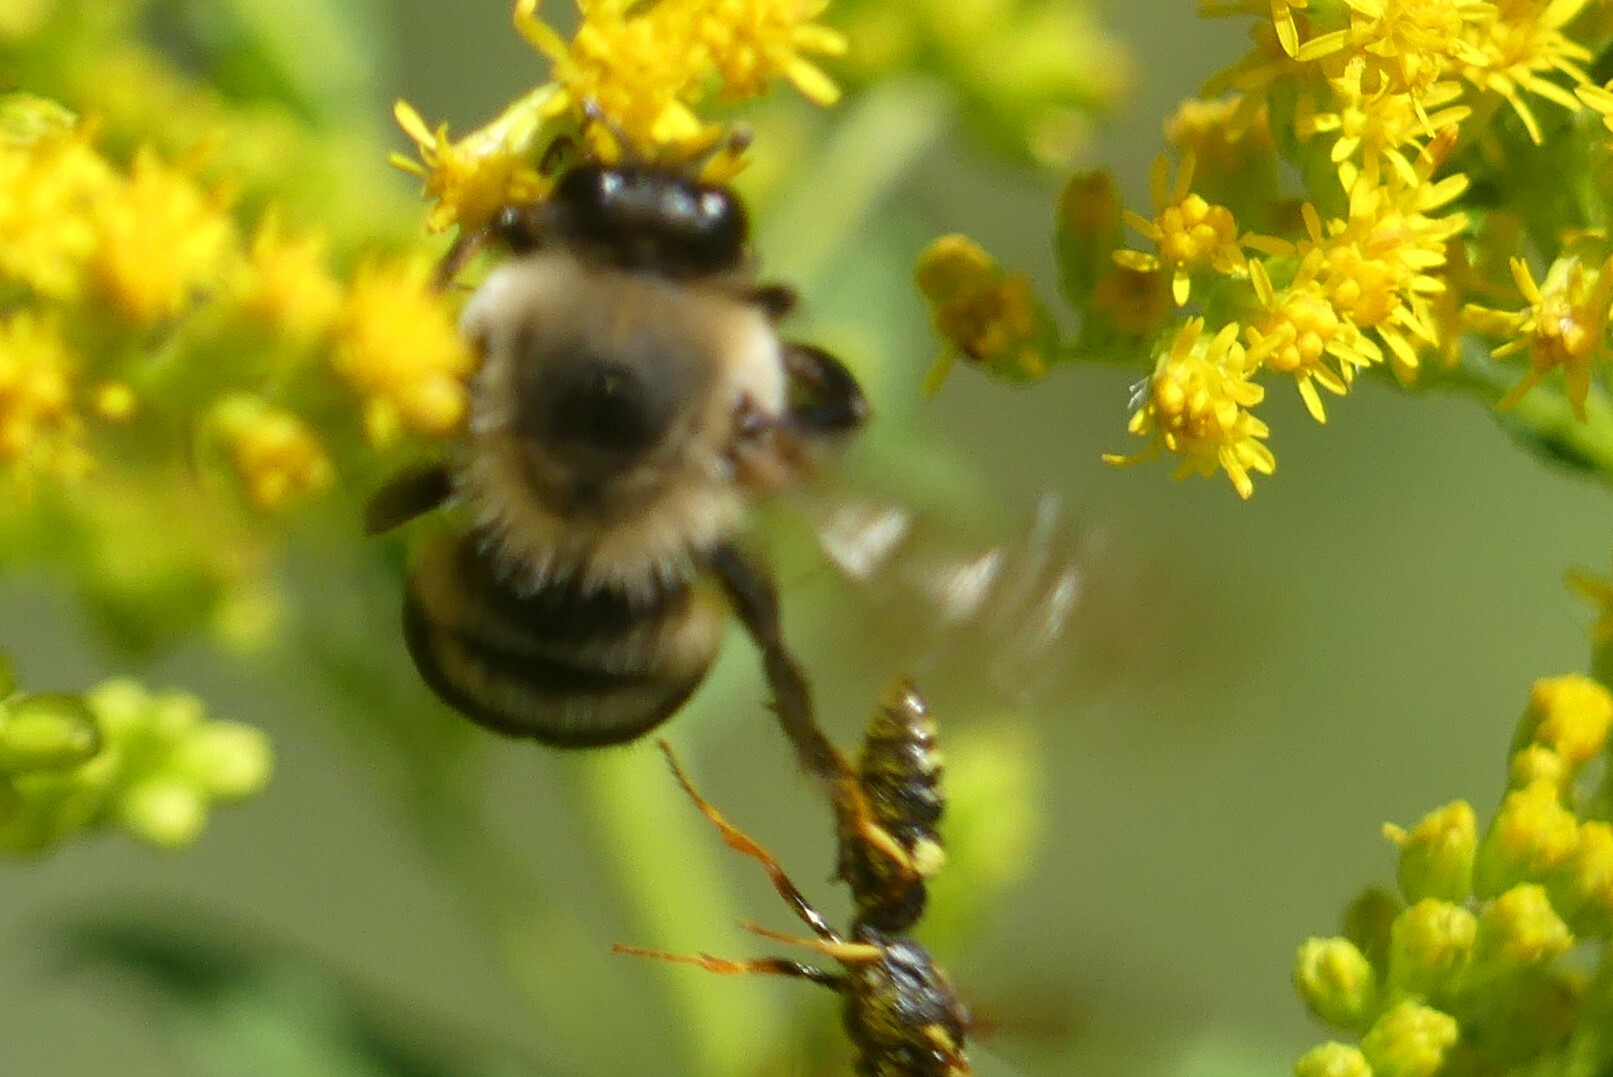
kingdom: Animalia
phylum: Arthropoda
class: Insecta
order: Hymenoptera
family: Crabronidae
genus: Philanthus
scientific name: Philanthus gibbosus
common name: Humped beewolf
